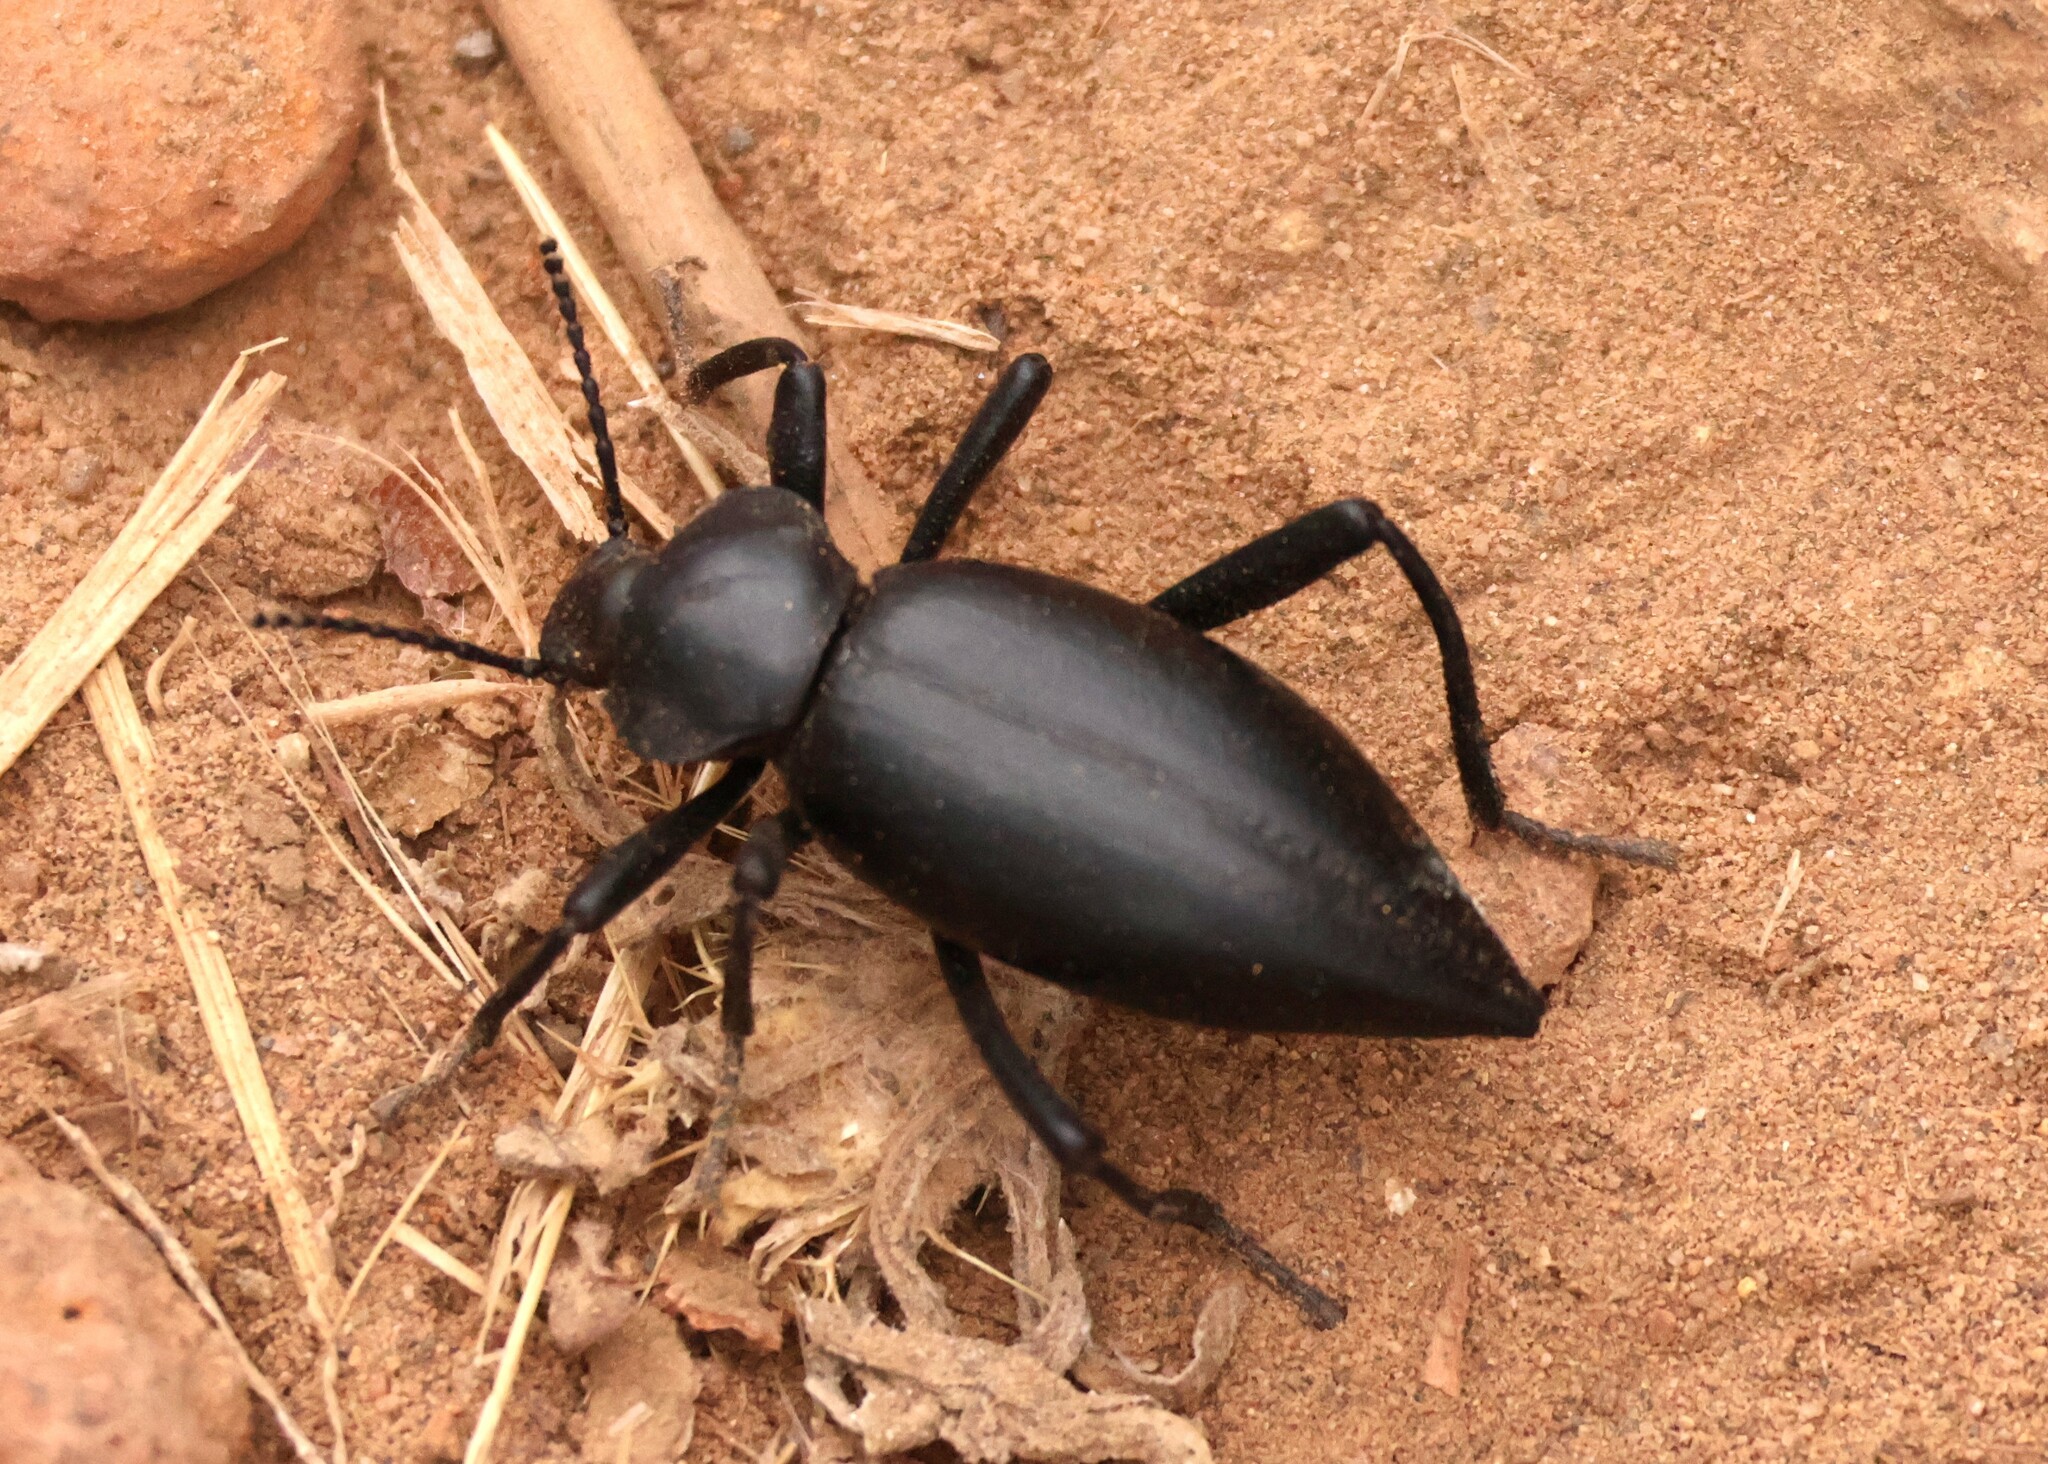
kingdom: Animalia
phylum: Arthropoda
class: Insecta
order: Coleoptera
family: Tenebrionidae
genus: Eleodes
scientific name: Eleodes acuticauda
